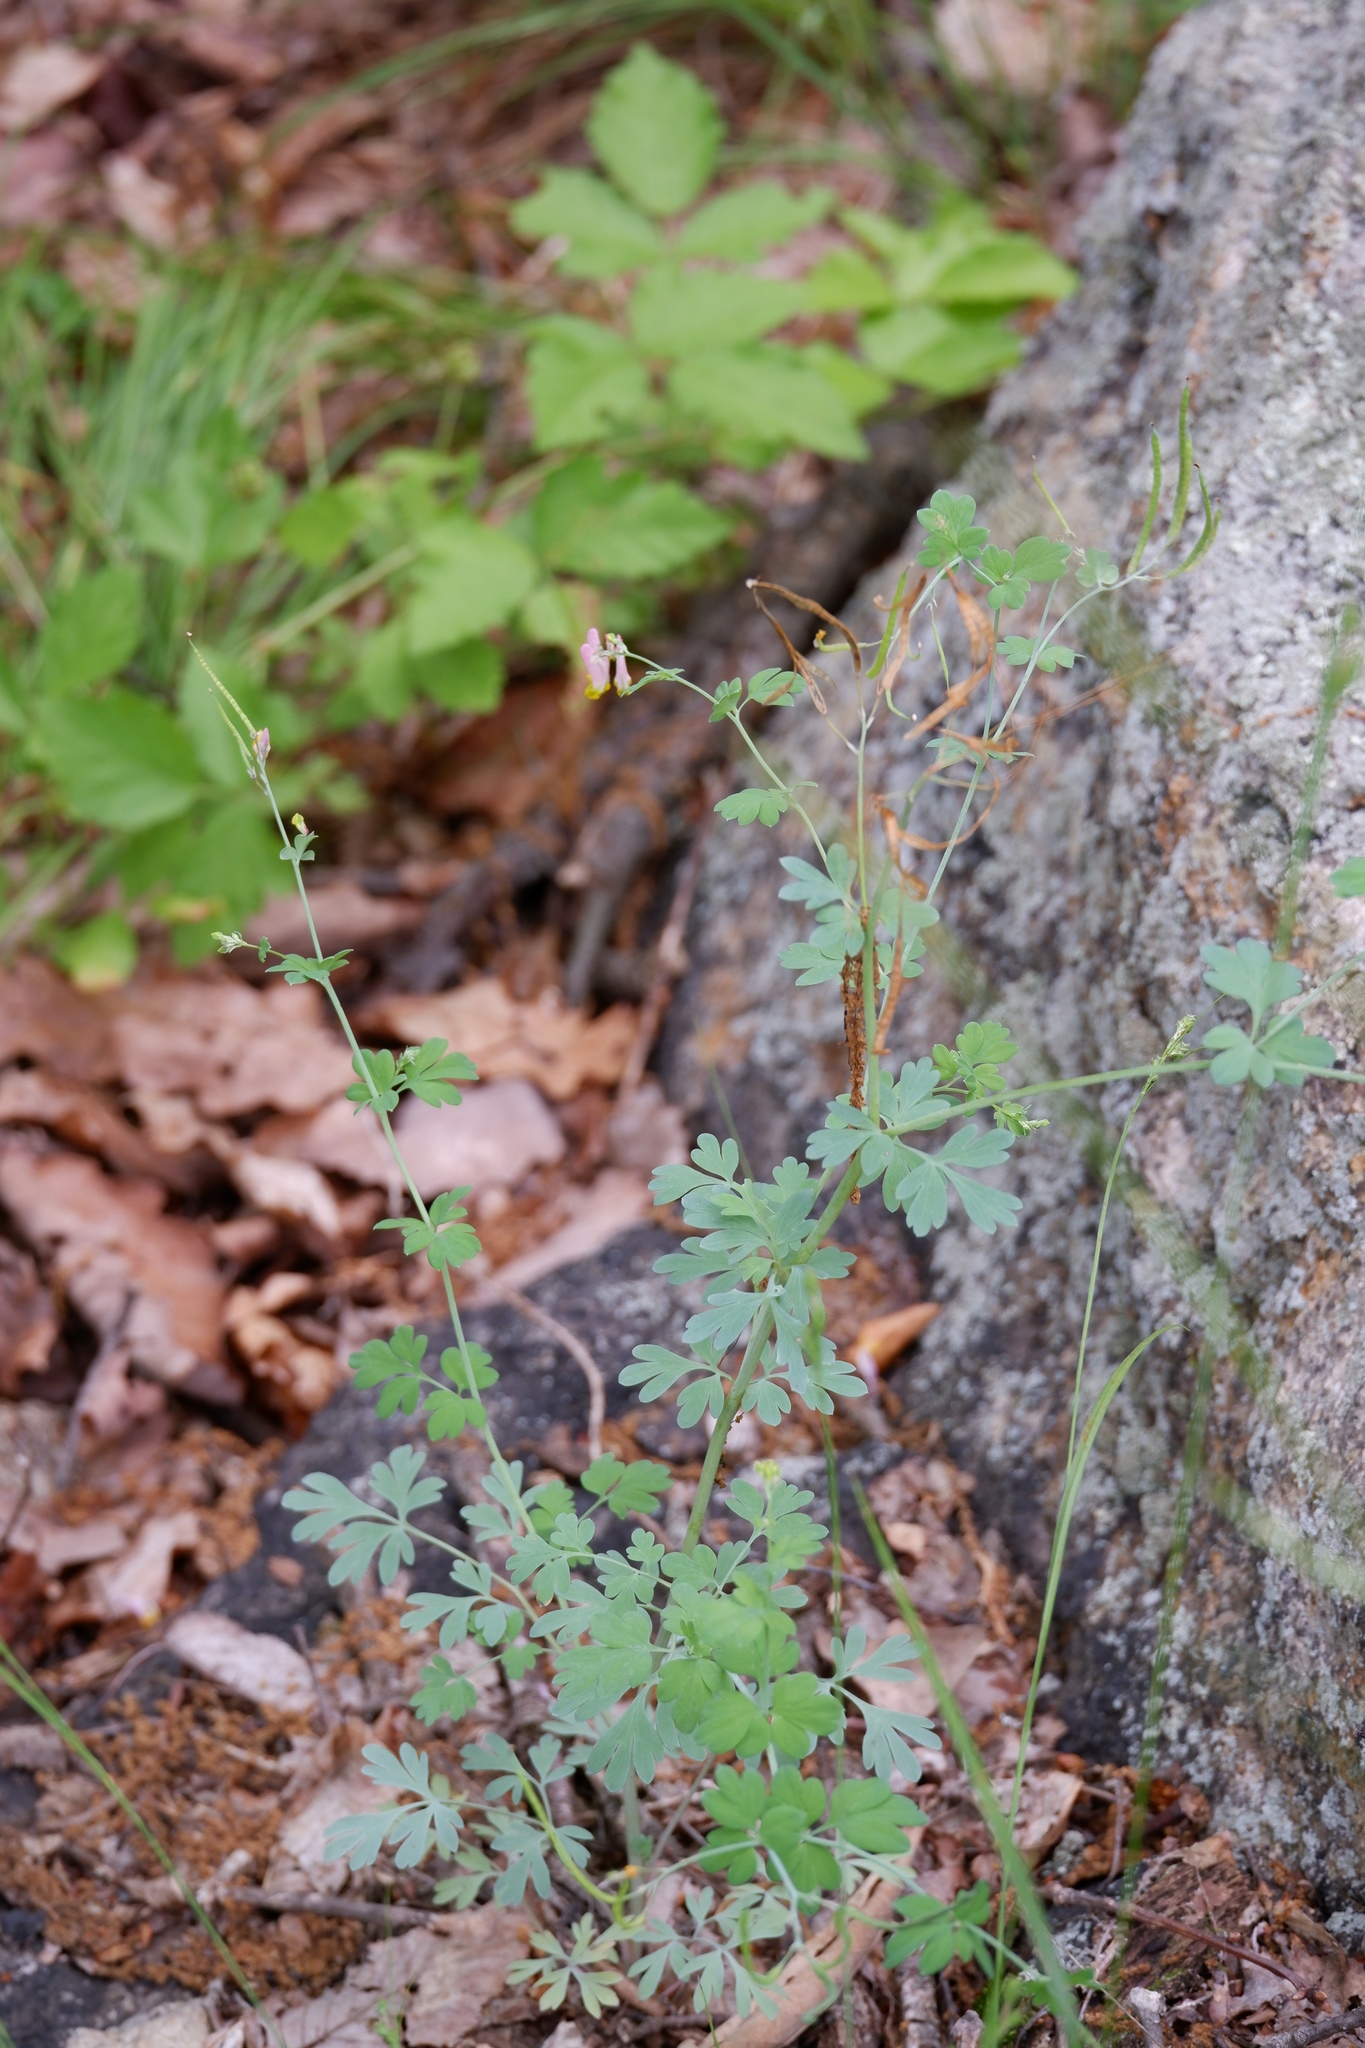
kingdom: Plantae
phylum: Tracheophyta
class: Magnoliopsida
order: Ranunculales
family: Papaveraceae
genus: Capnoides
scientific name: Capnoides sempervirens
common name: Rock harlequin
